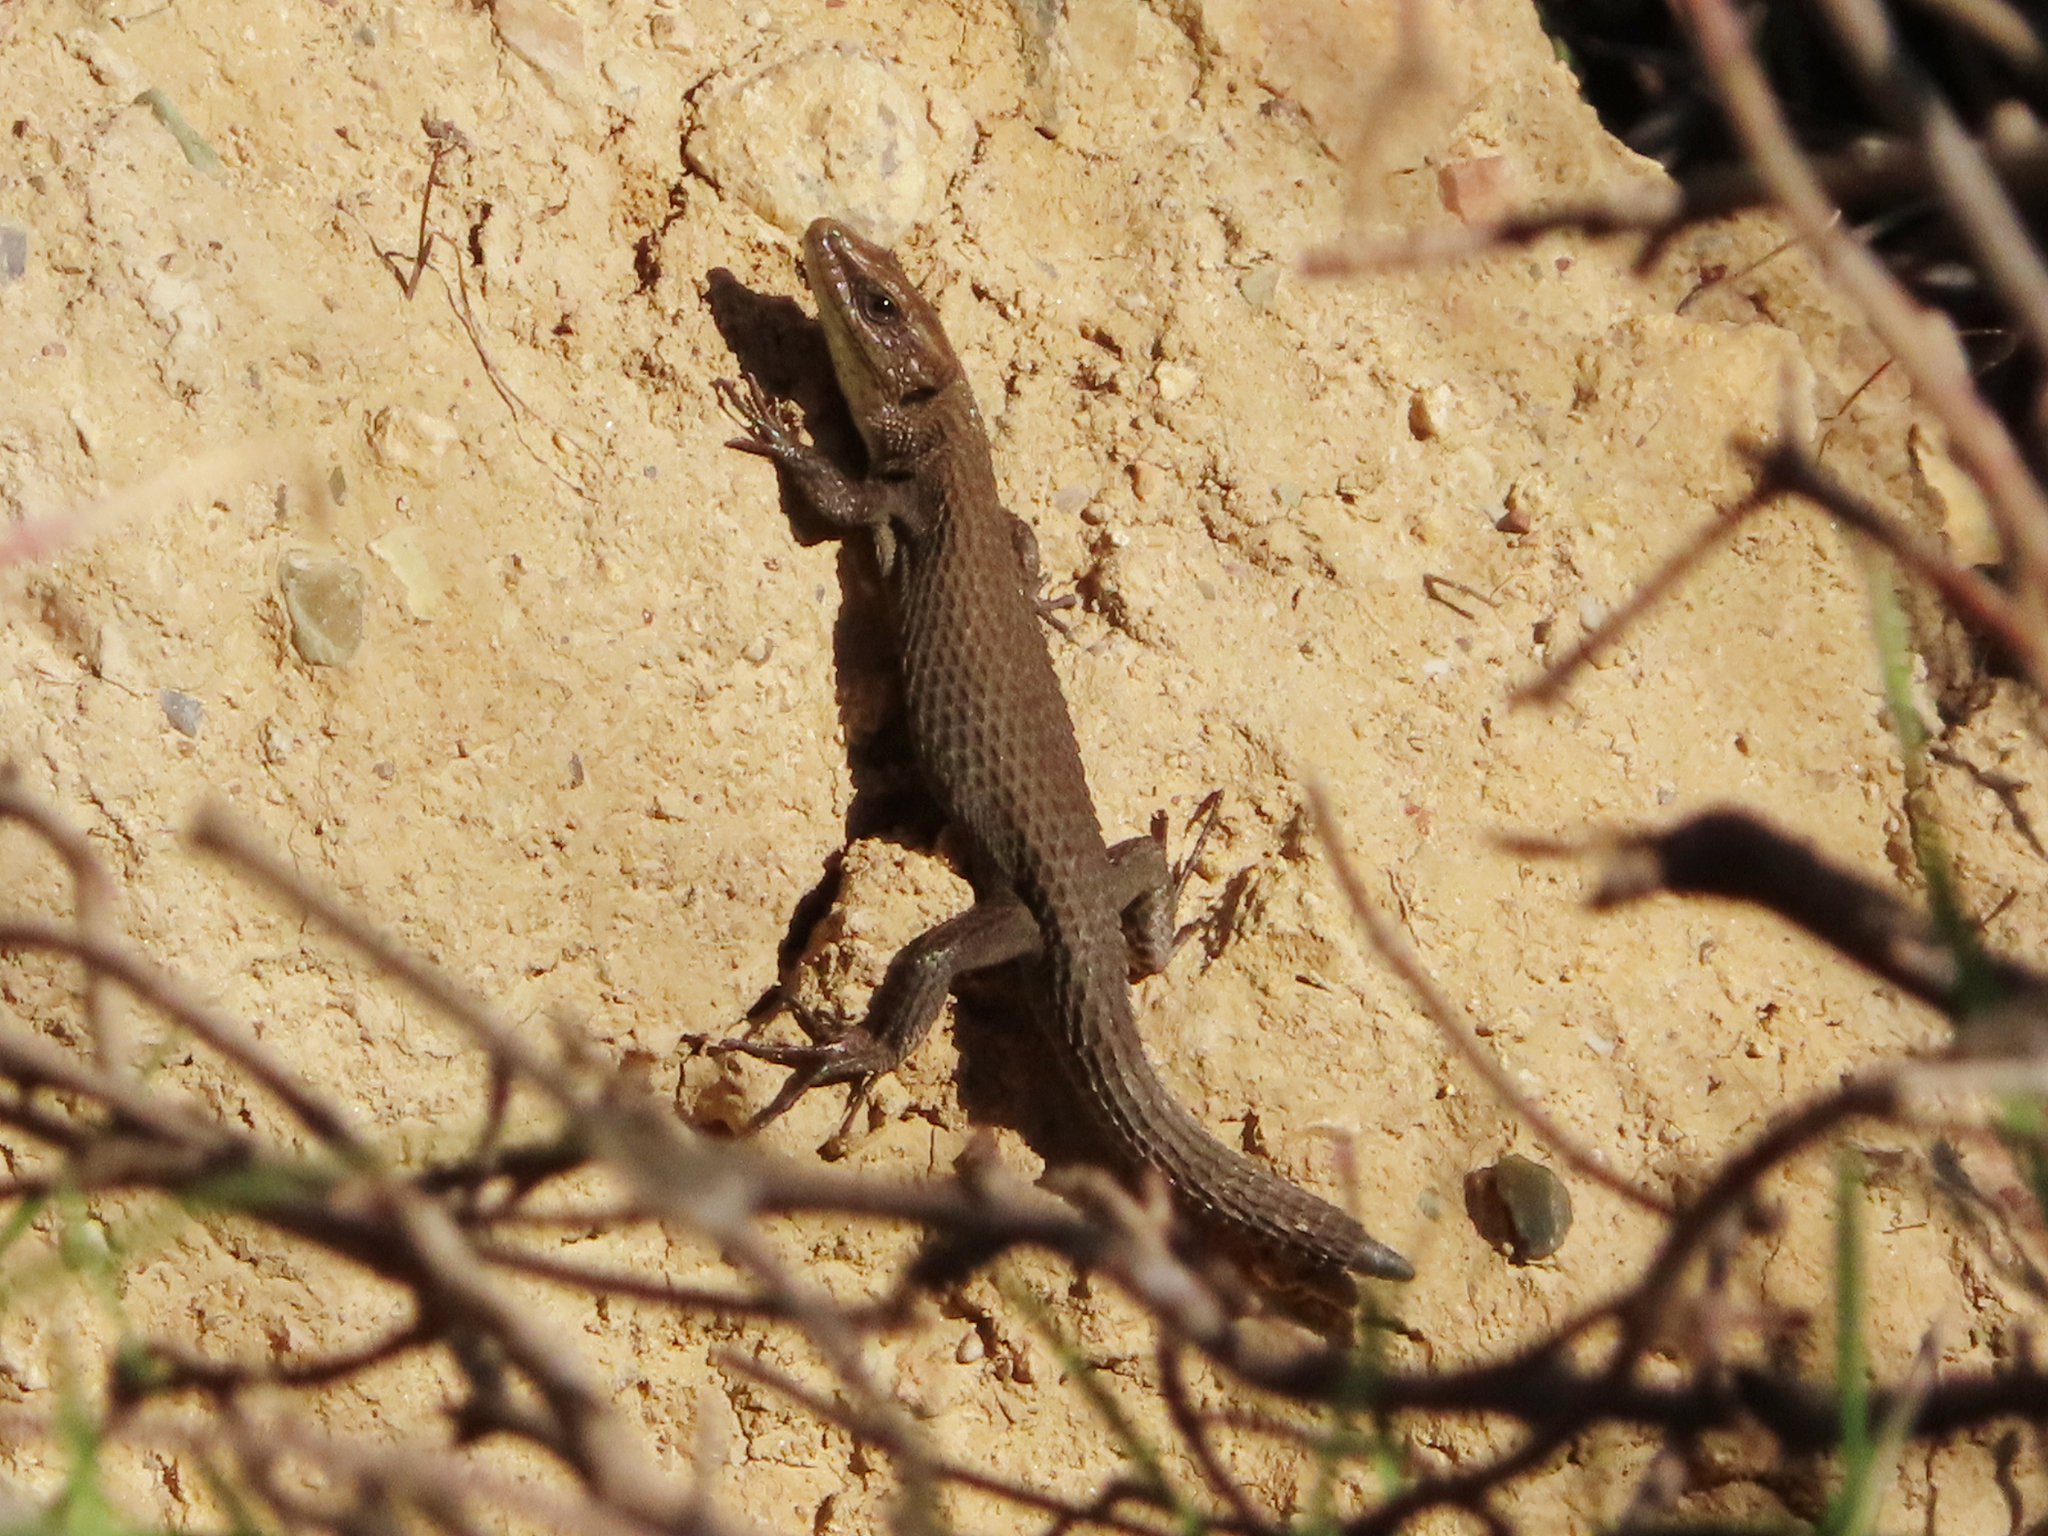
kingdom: Animalia
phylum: Chordata
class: Squamata
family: Lacertidae
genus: Algyroides
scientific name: Algyroides moreoticus
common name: Greek algyroides
